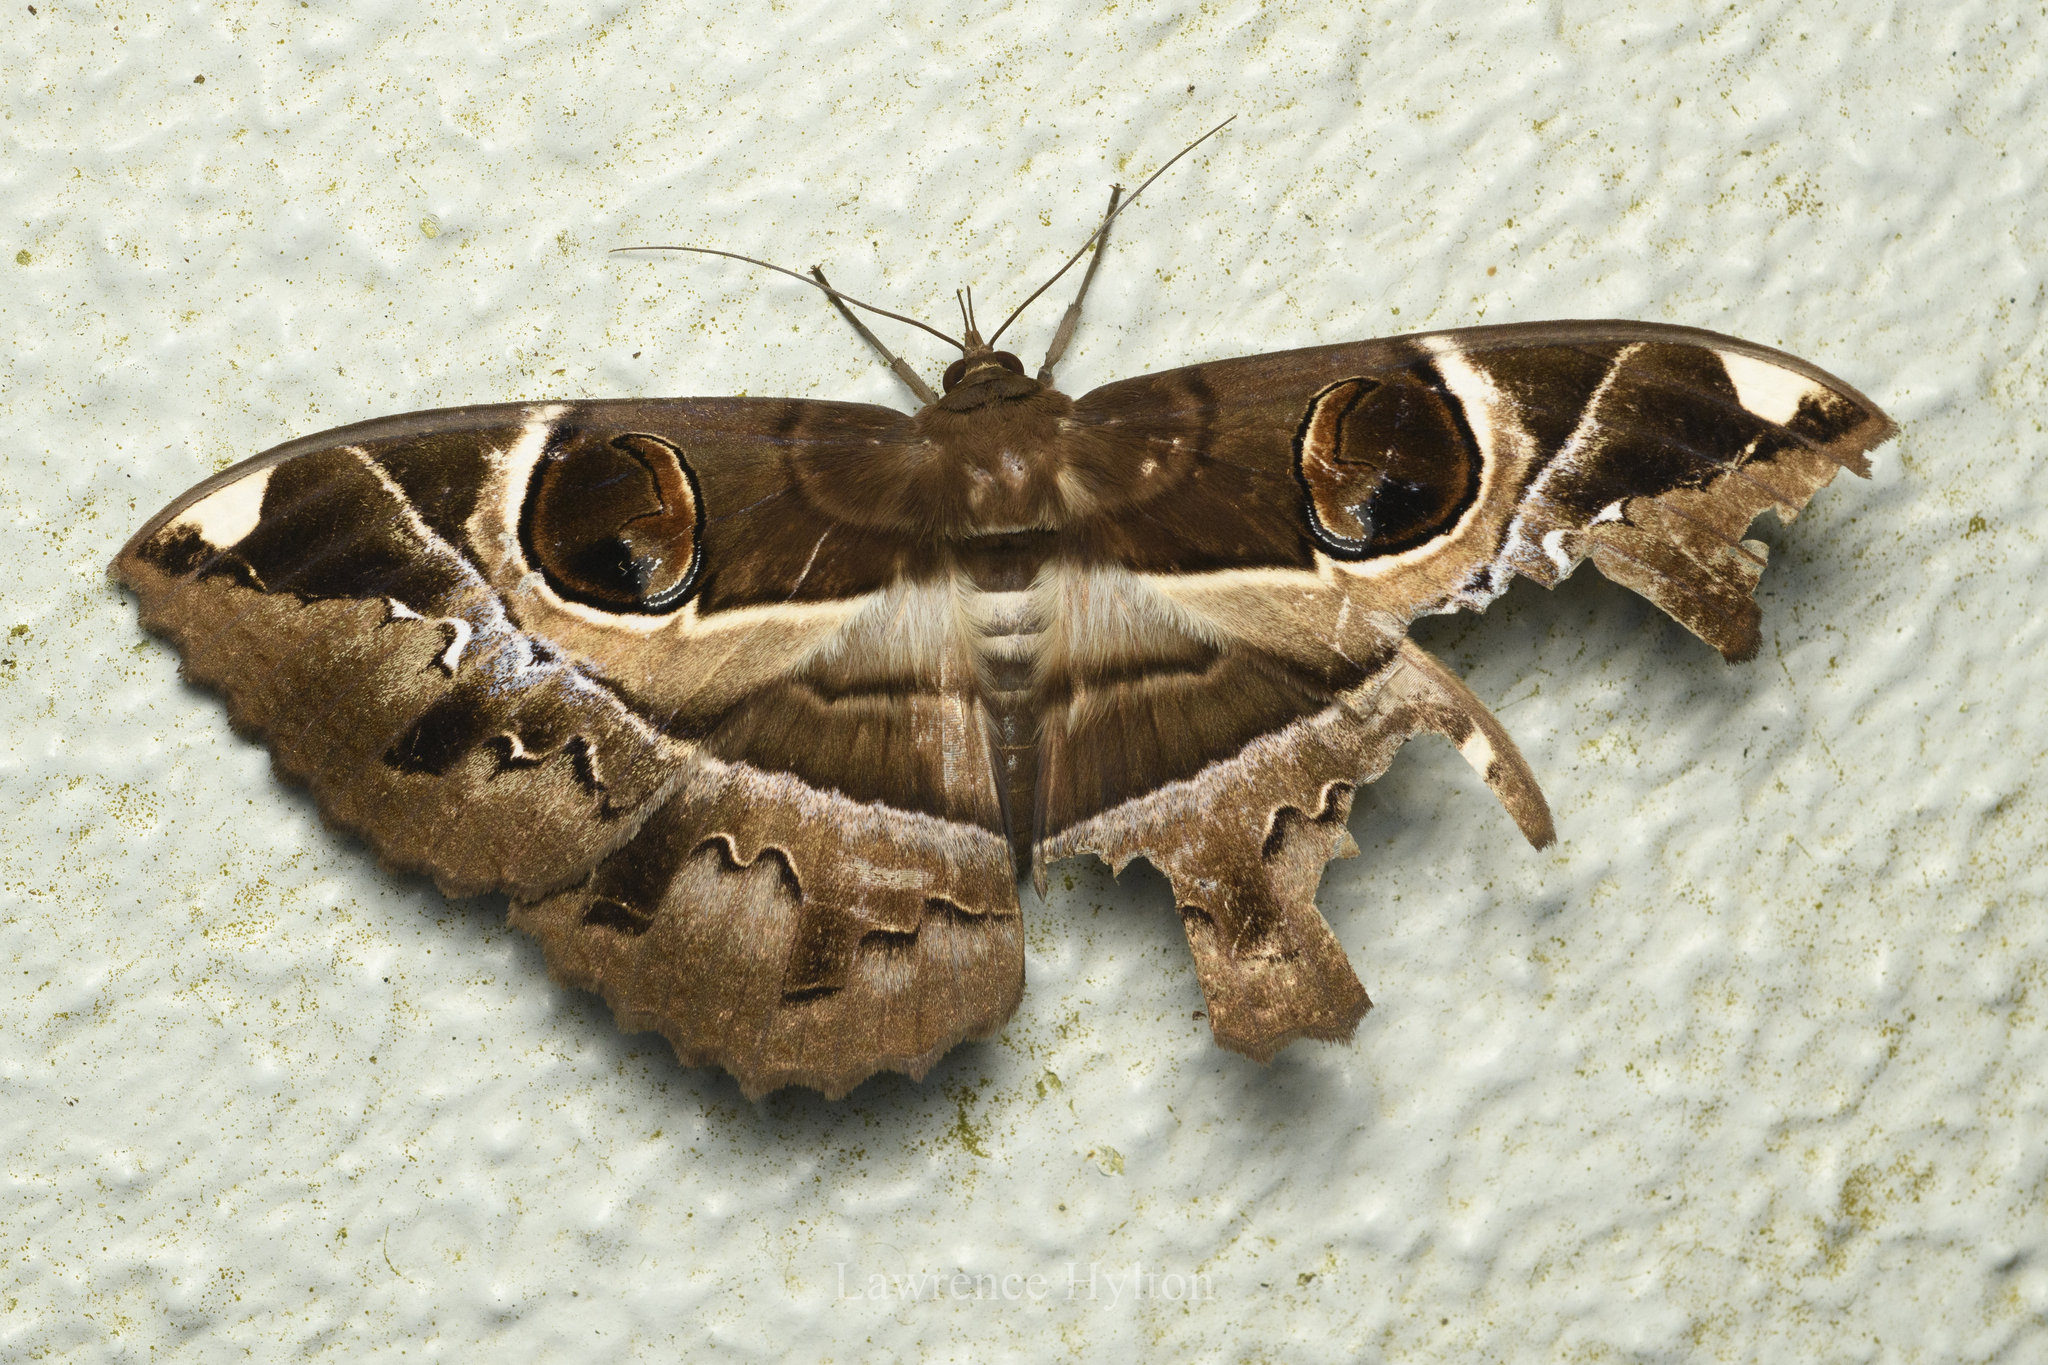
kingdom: Animalia
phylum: Arthropoda
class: Insecta
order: Lepidoptera
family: Erebidae
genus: Erebus
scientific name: Erebus ephesperis
